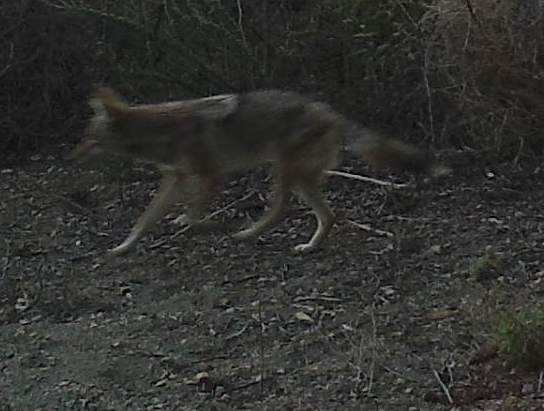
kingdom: Animalia
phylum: Chordata
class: Mammalia
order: Carnivora
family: Canidae
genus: Canis
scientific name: Canis latrans
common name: Coyote
